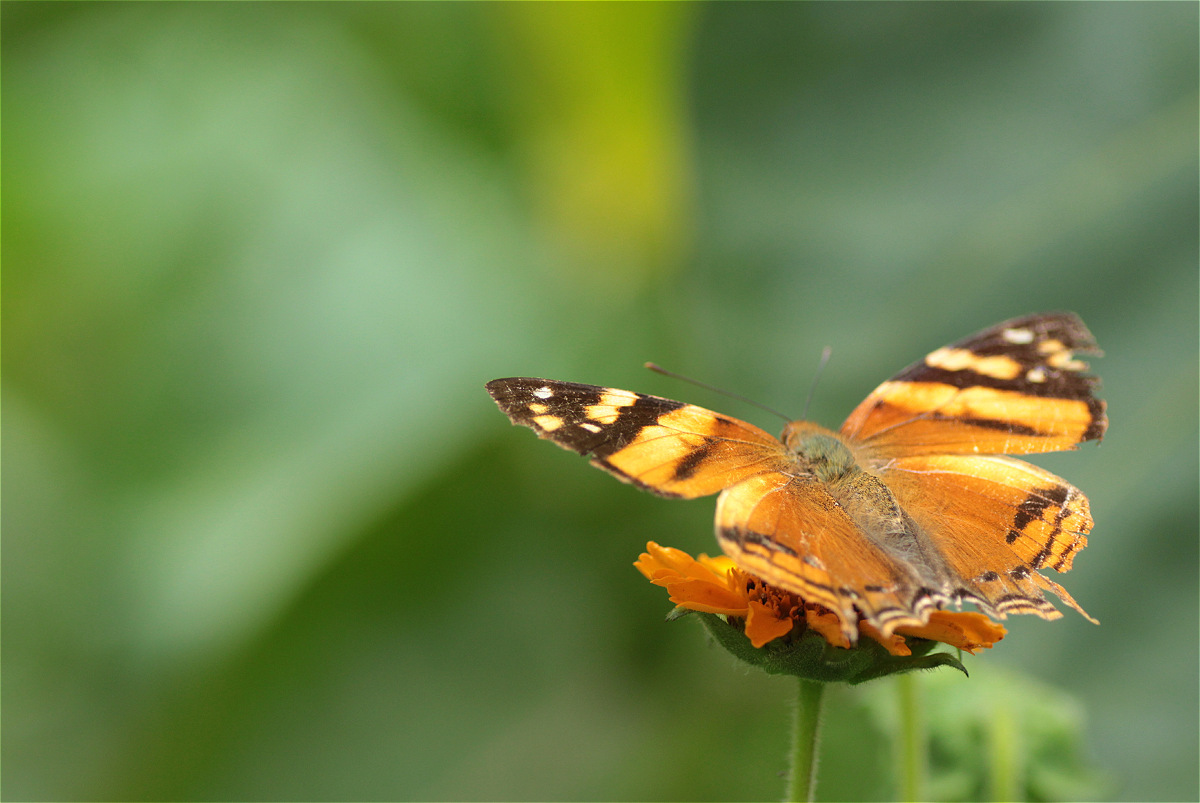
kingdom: Animalia
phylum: Arthropoda
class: Insecta
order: Lepidoptera
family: Nymphalidae
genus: Hypanartia
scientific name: Hypanartia lethe
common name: Orange mapwing
